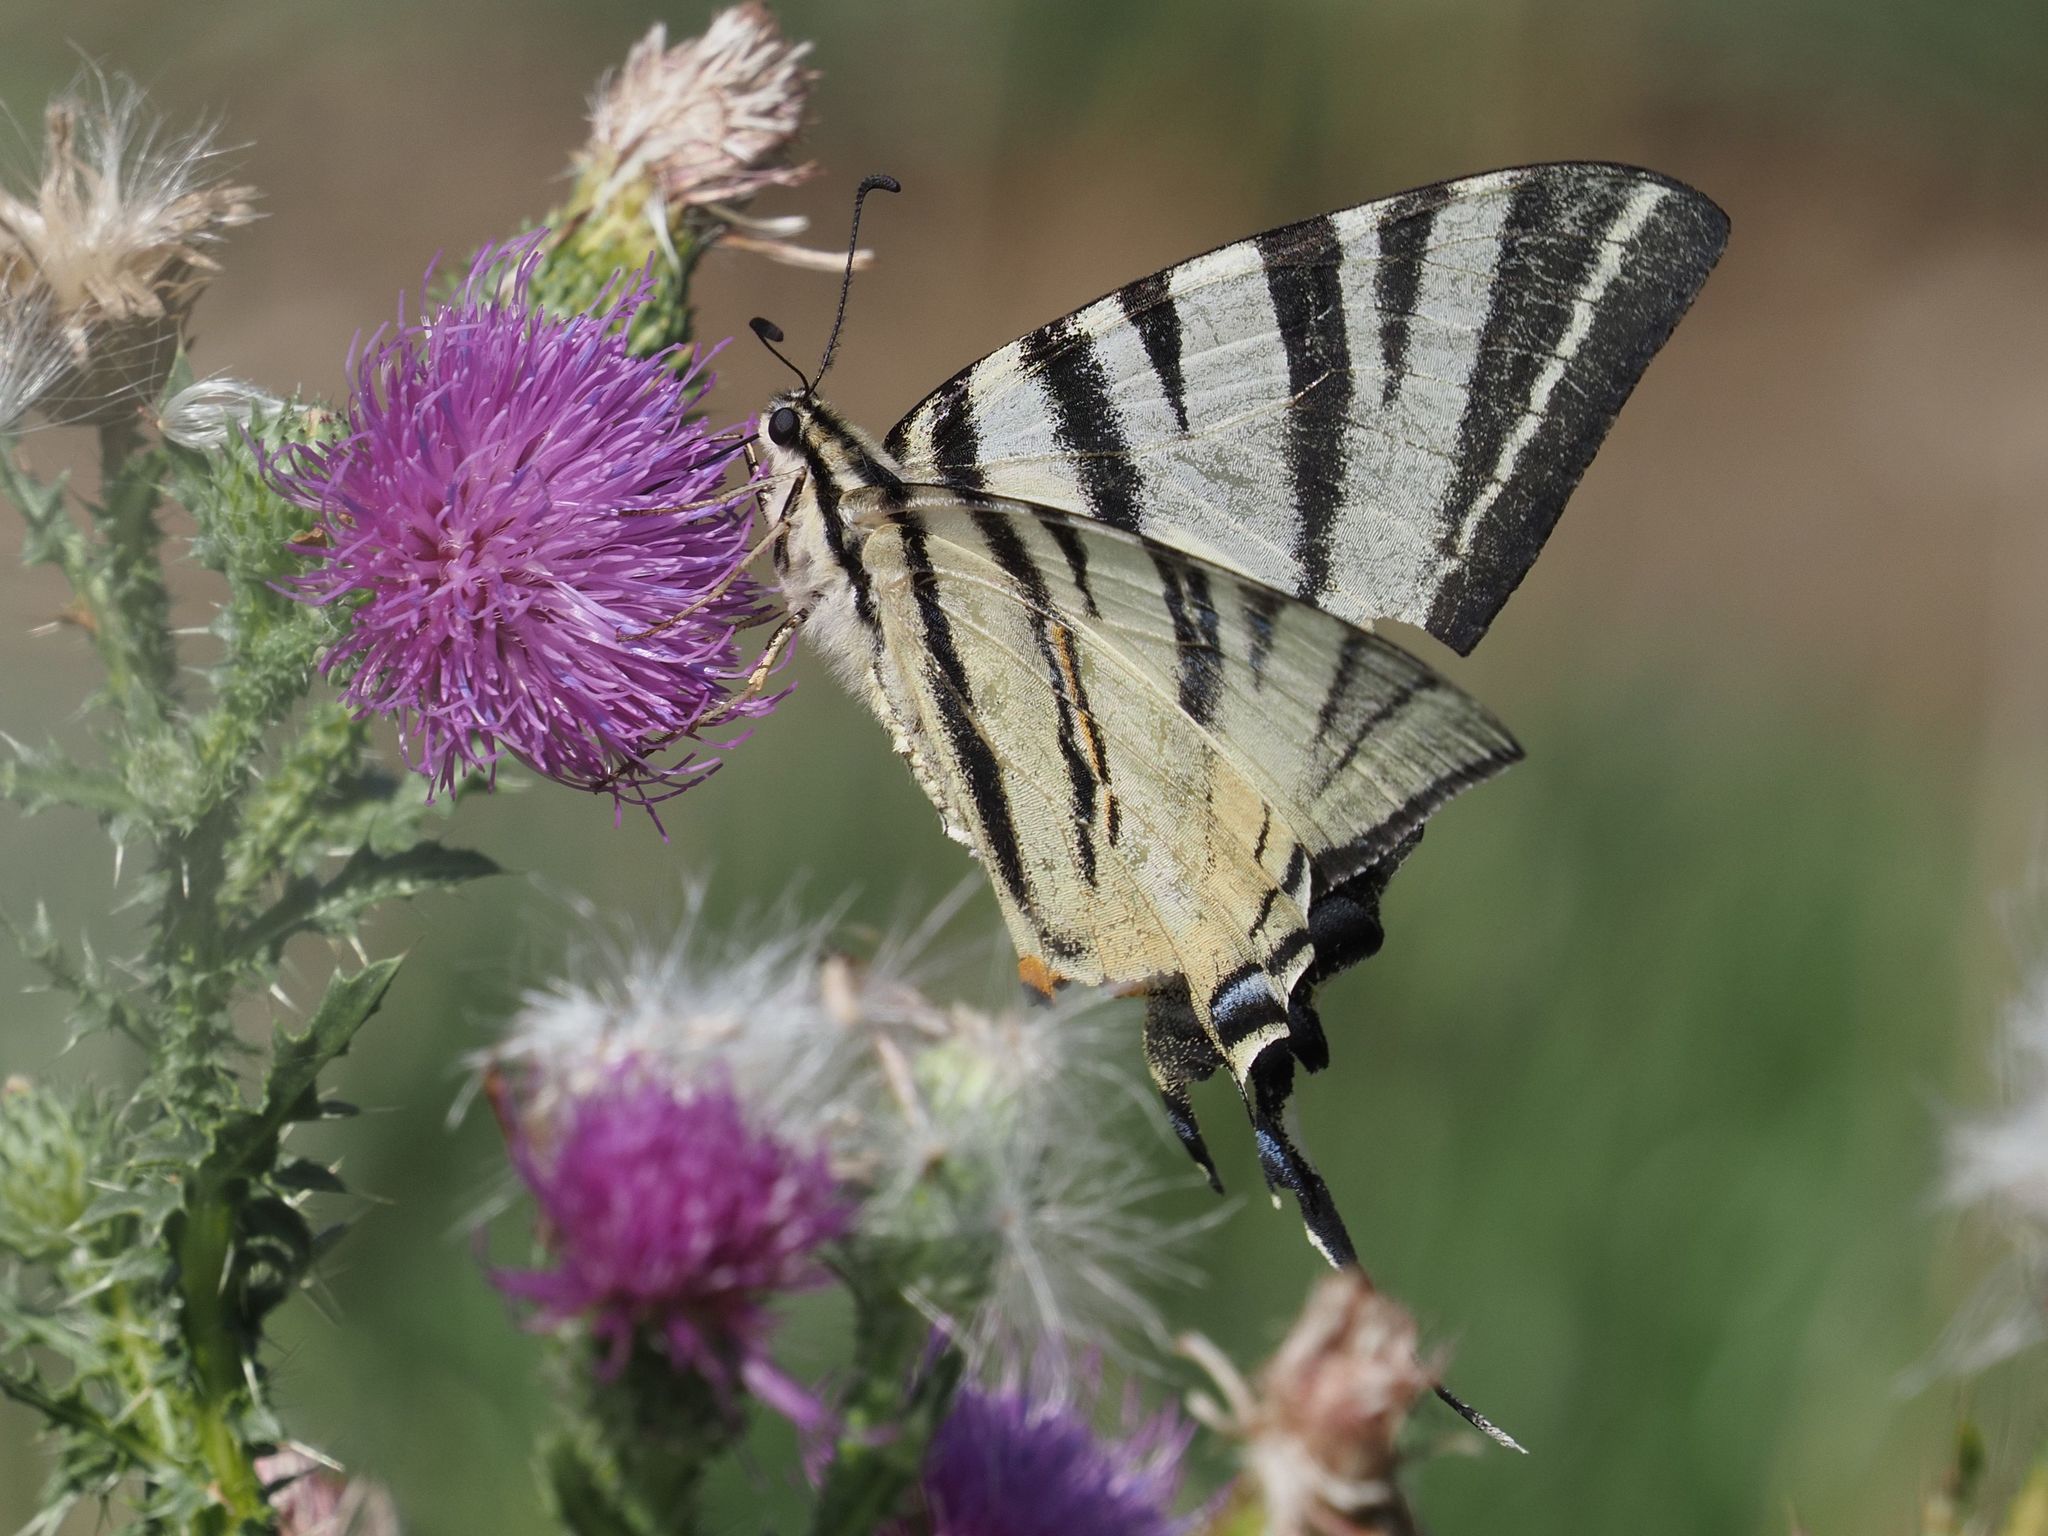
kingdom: Animalia
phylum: Arthropoda
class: Insecta
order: Lepidoptera
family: Papilionidae
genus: Iphiclides
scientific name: Iphiclides podalirius
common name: Scarce swallowtail
